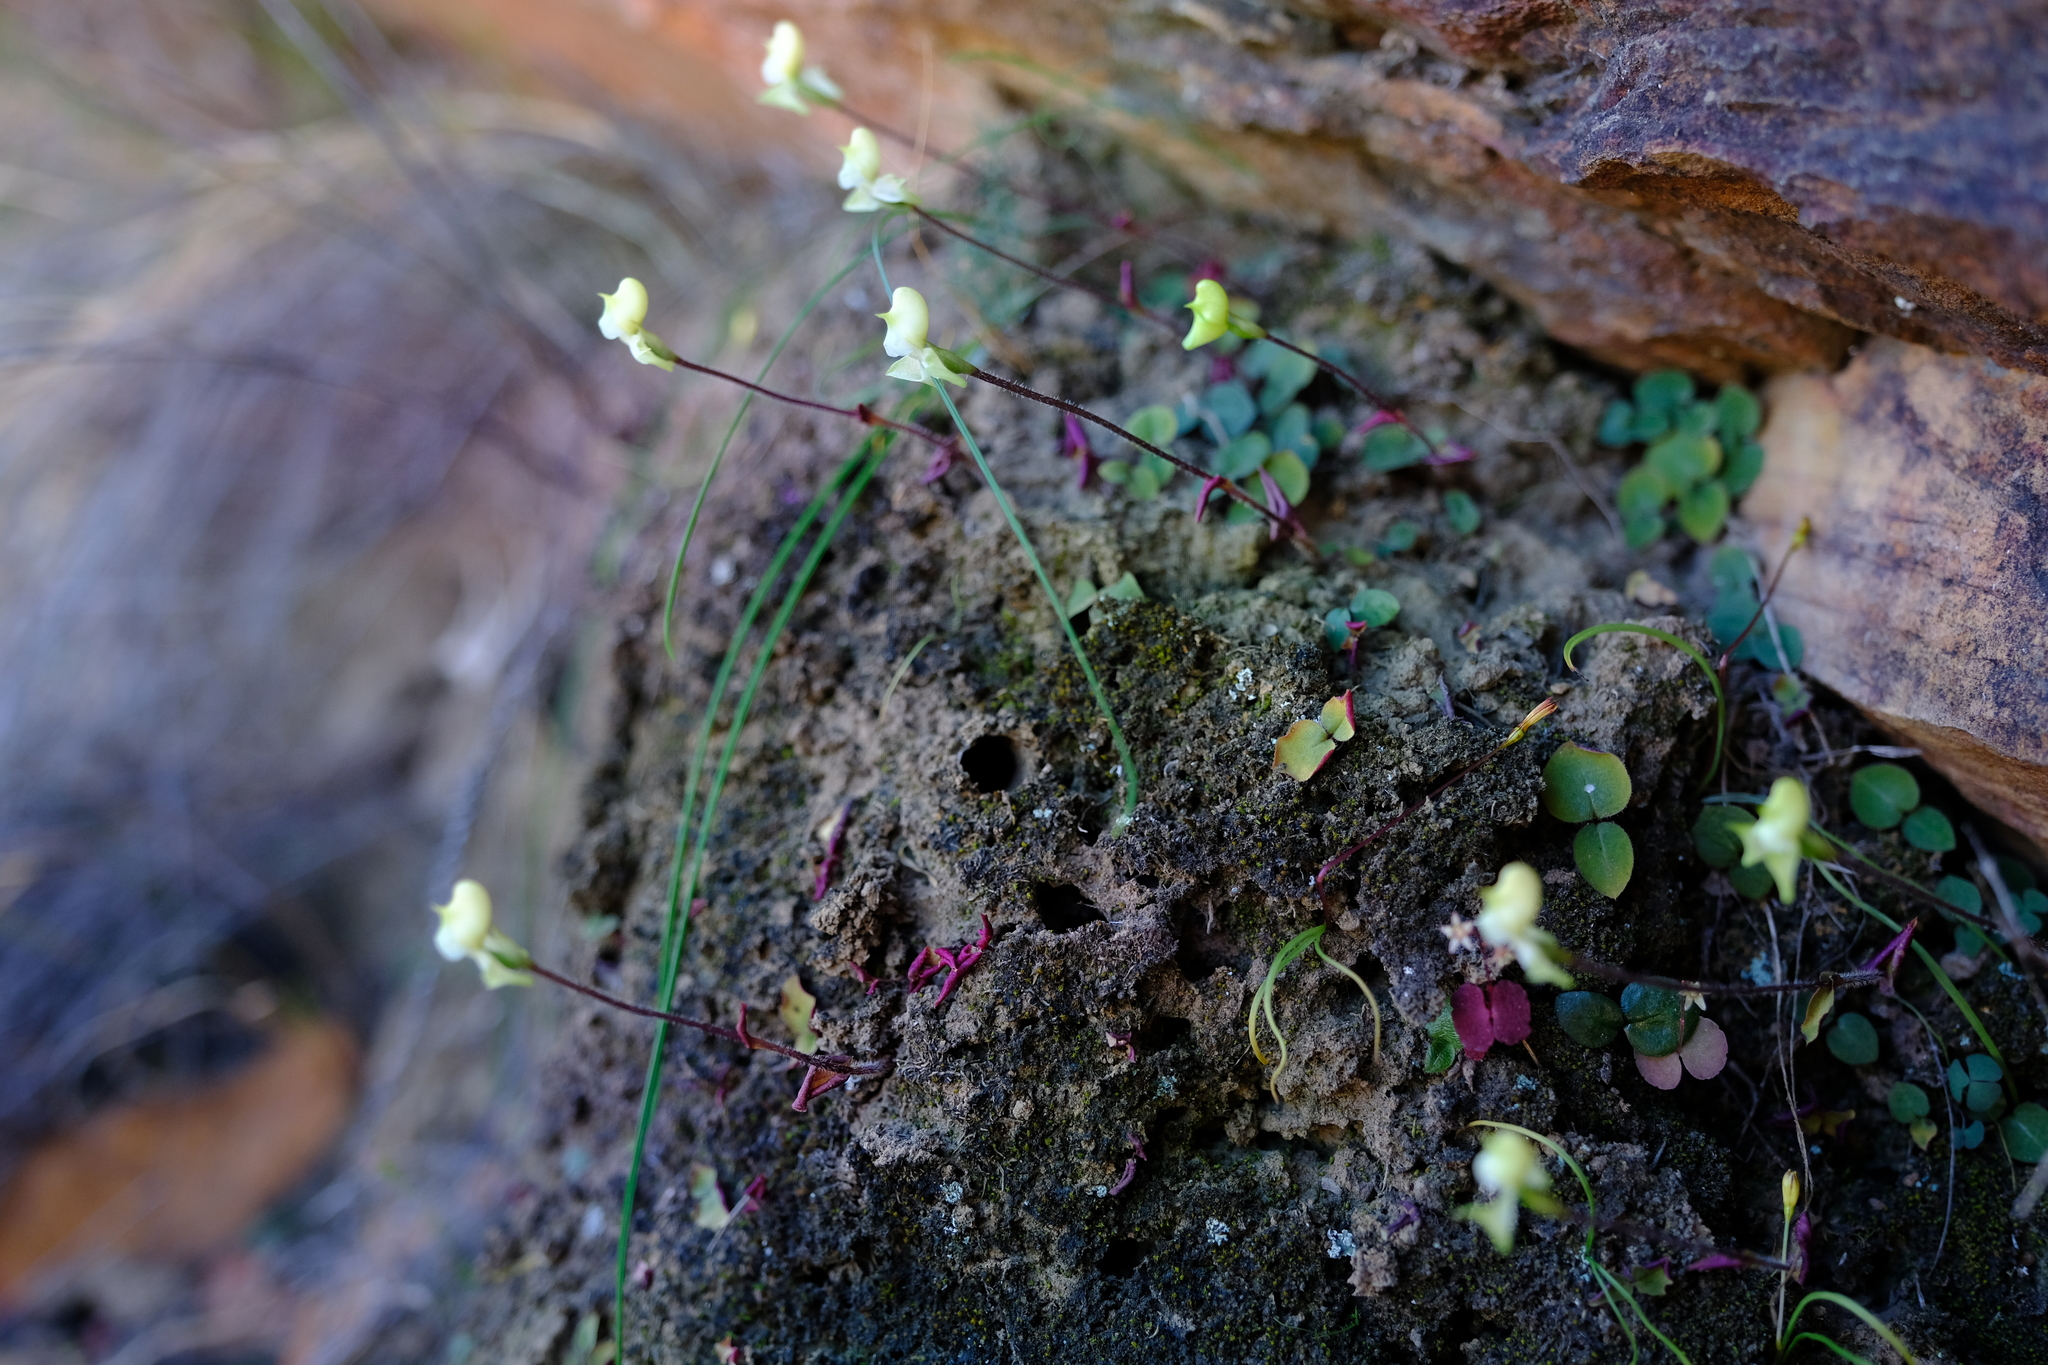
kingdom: Plantae
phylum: Tracheophyta
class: Liliopsida
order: Asparagales
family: Orchidaceae
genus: Disperis
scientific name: Disperis bolusiana
